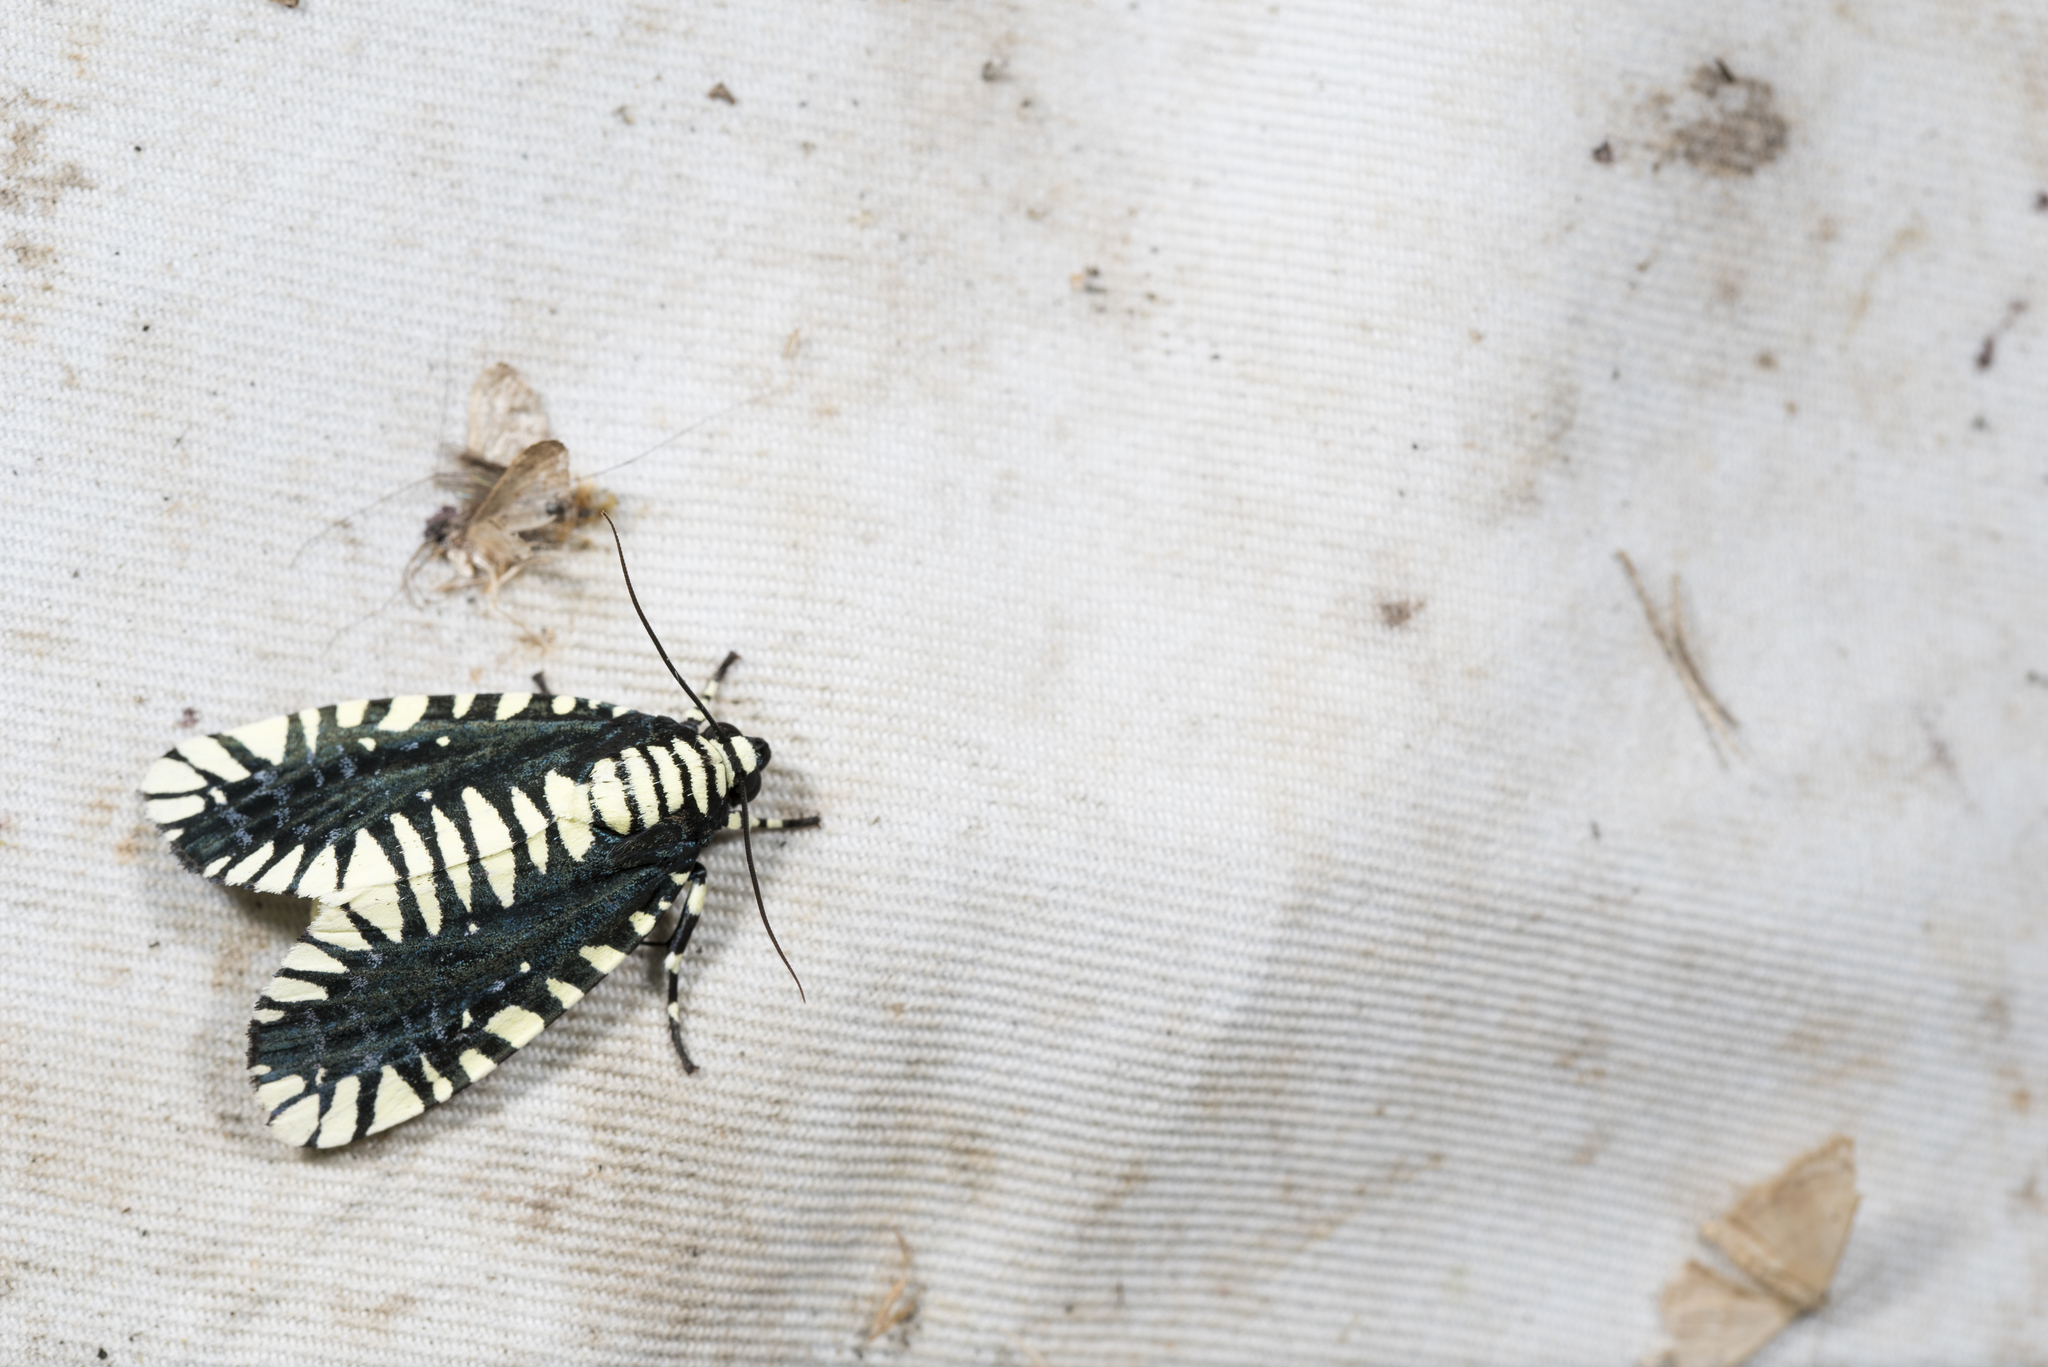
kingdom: Animalia
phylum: Arthropoda
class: Insecta
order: Lepidoptera
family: Noctuidae
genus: Apsarasa
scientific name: Apsarasa radians
